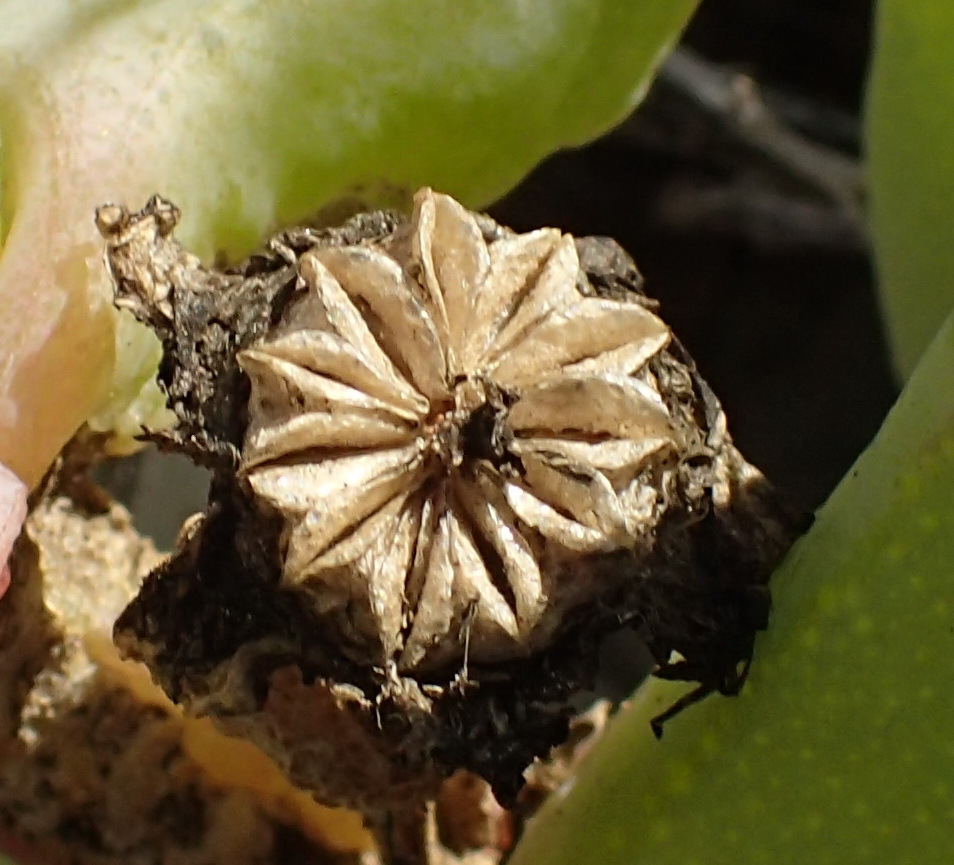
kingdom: Plantae
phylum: Tracheophyta
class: Magnoliopsida
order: Caryophyllales
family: Aizoaceae
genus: Malephora
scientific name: Malephora purpureocrocea
